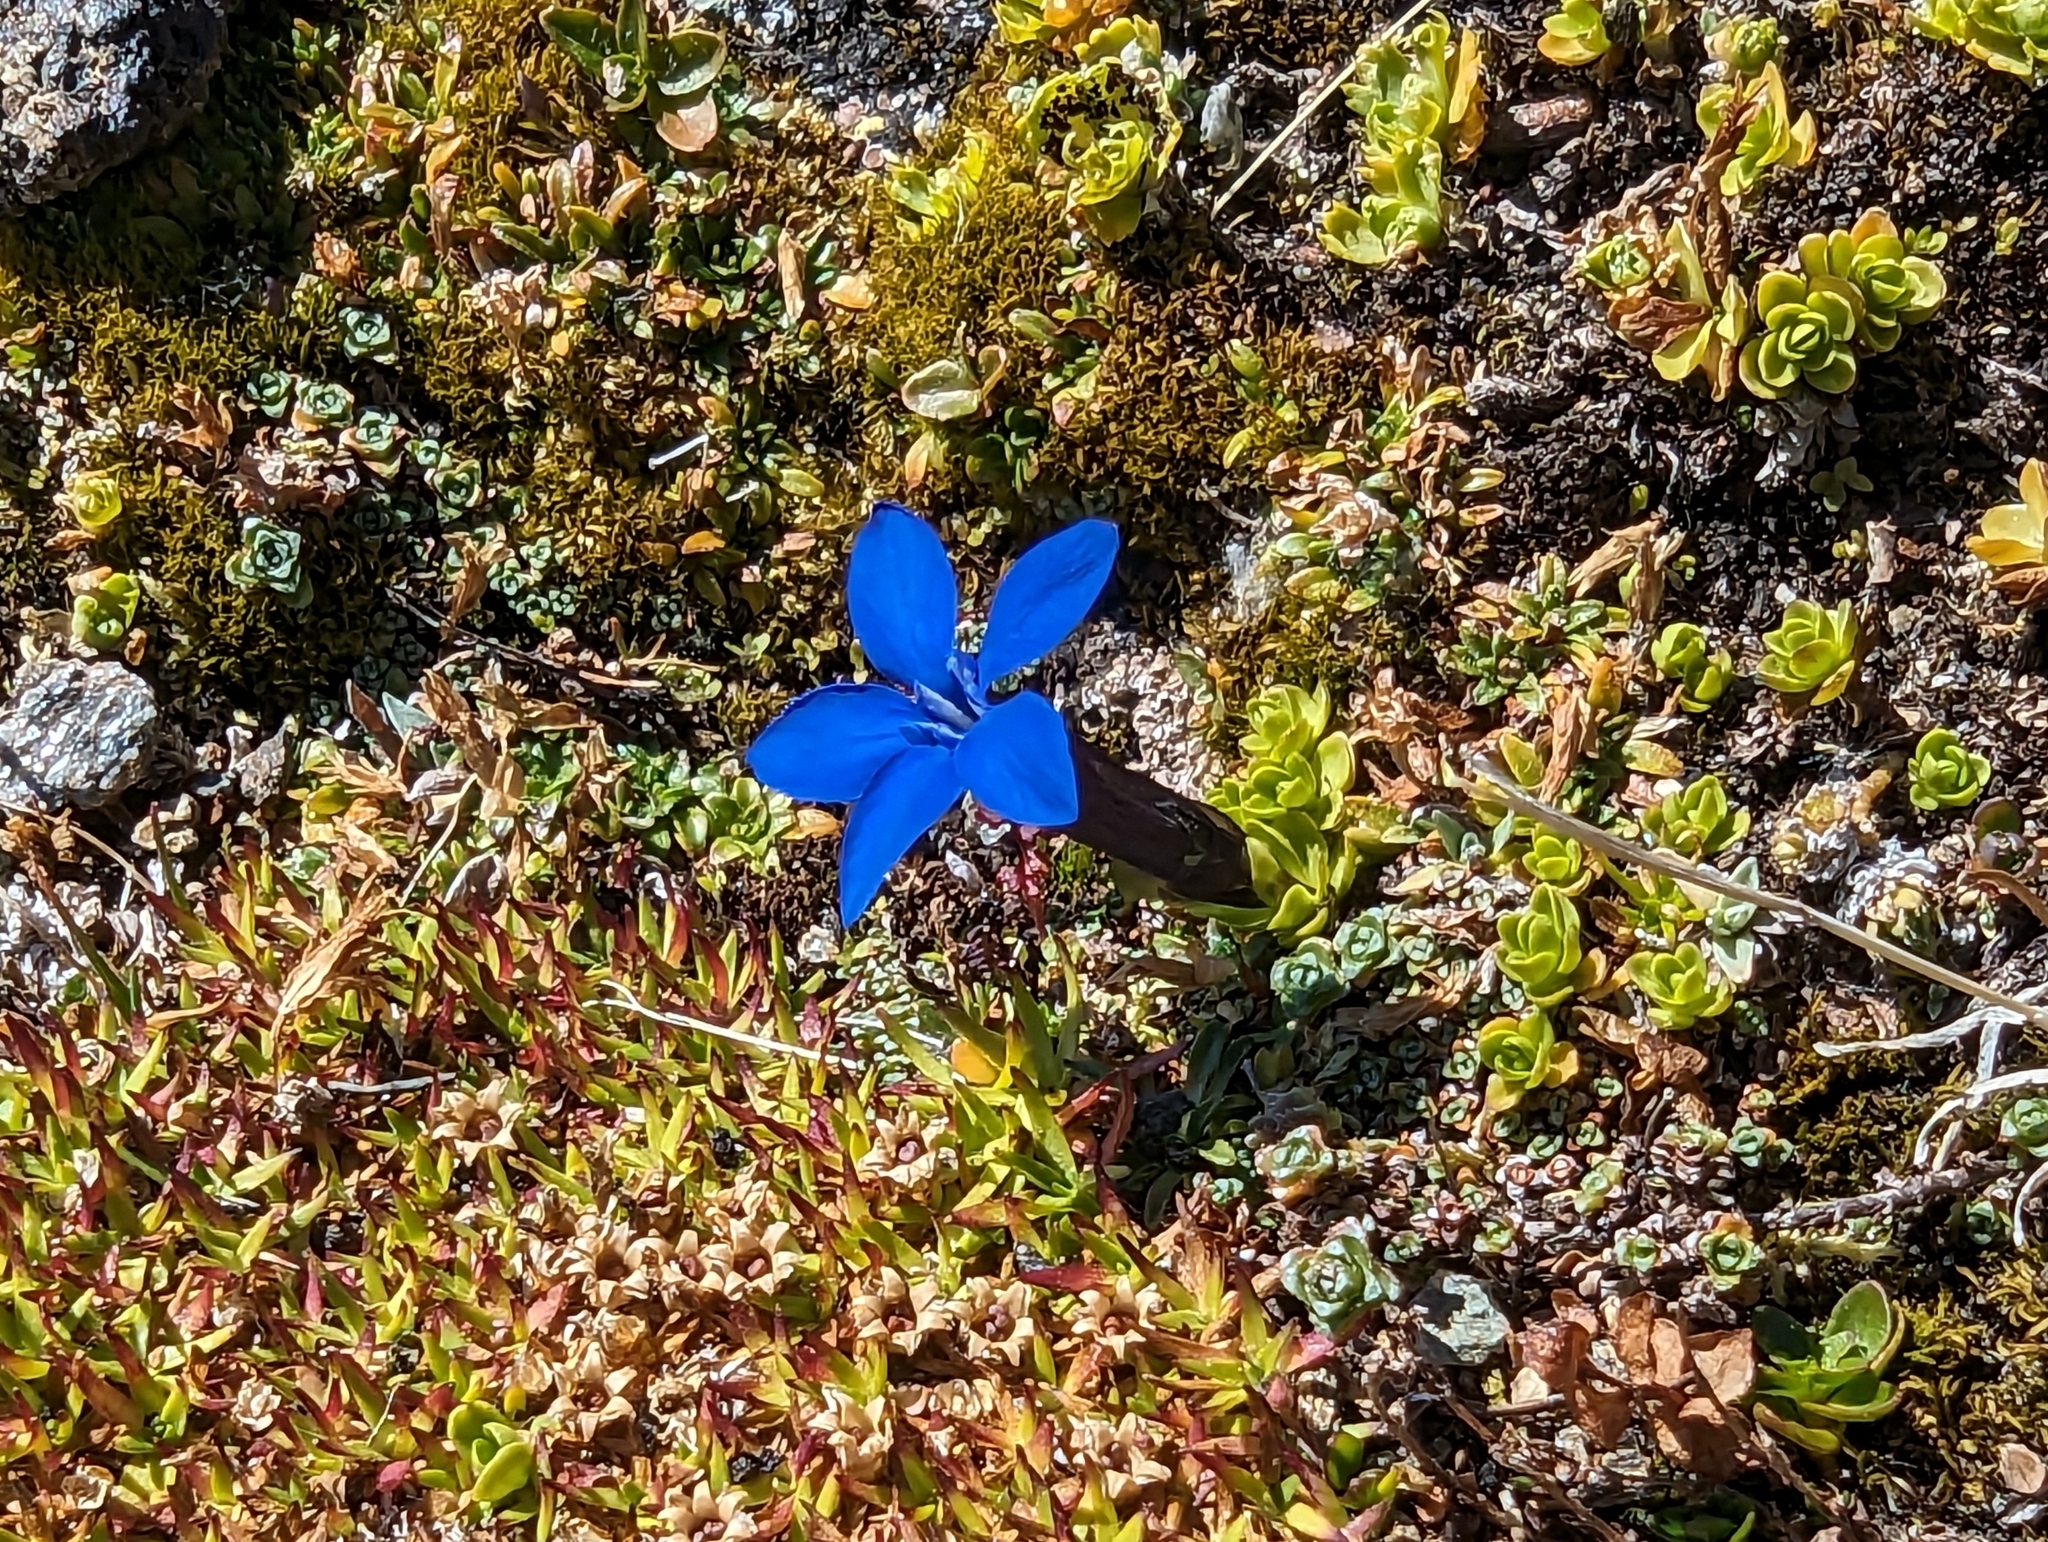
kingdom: Plantae
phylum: Tracheophyta
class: Magnoliopsida
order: Gentianales
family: Gentianaceae
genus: Gentiana
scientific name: Gentiana bavarica
